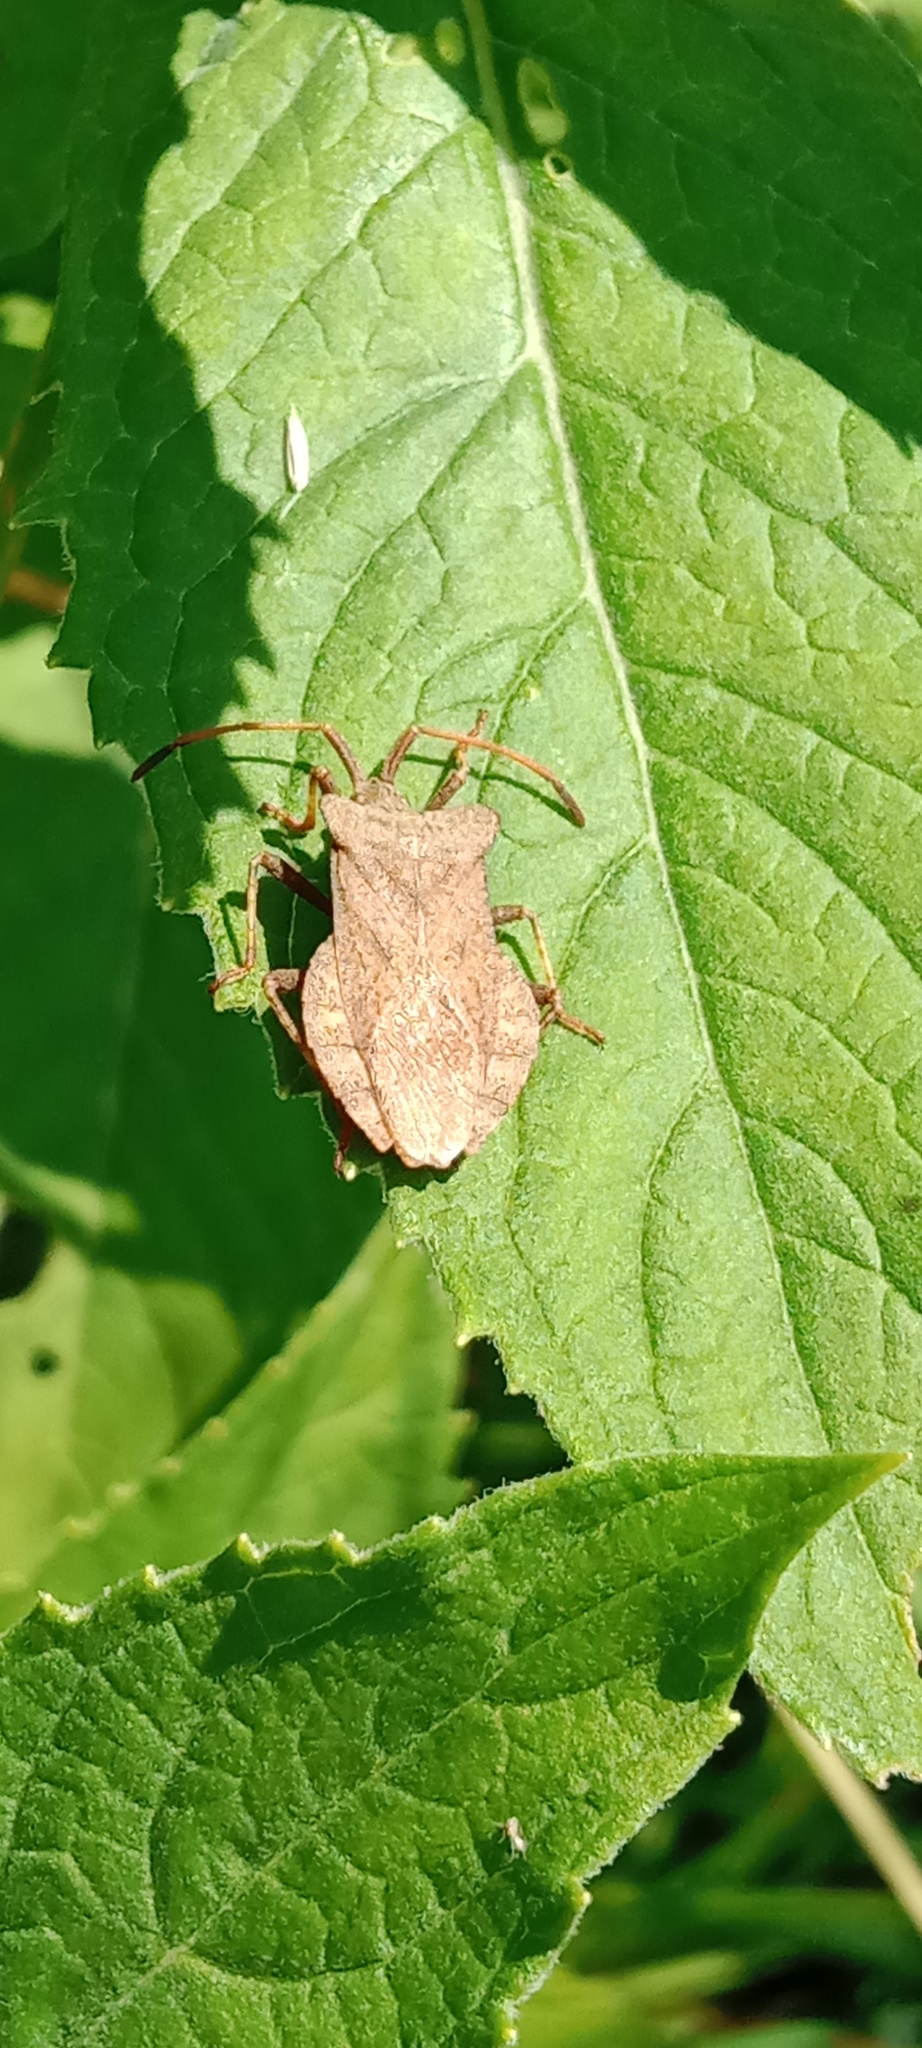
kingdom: Animalia
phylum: Arthropoda
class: Insecta
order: Hemiptera
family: Coreidae
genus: Coreus
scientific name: Coreus marginatus
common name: Dock bug
